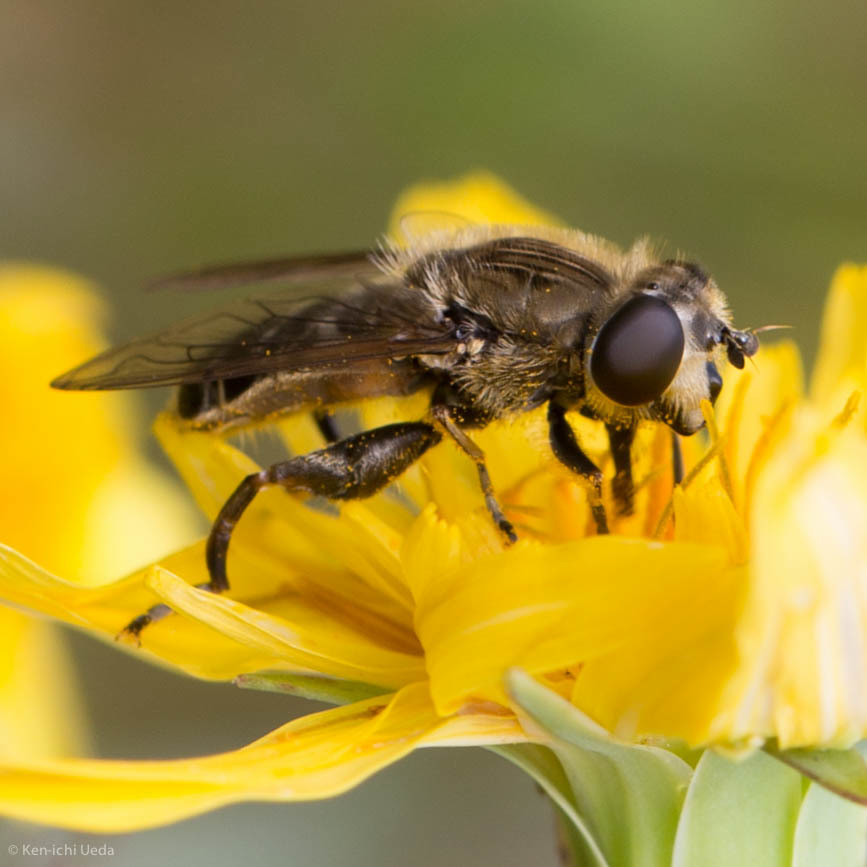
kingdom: Animalia
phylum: Arthropoda
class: Insecta
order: Diptera
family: Syrphidae
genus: Asemosyrphus
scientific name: Asemosyrphus polygrammus
